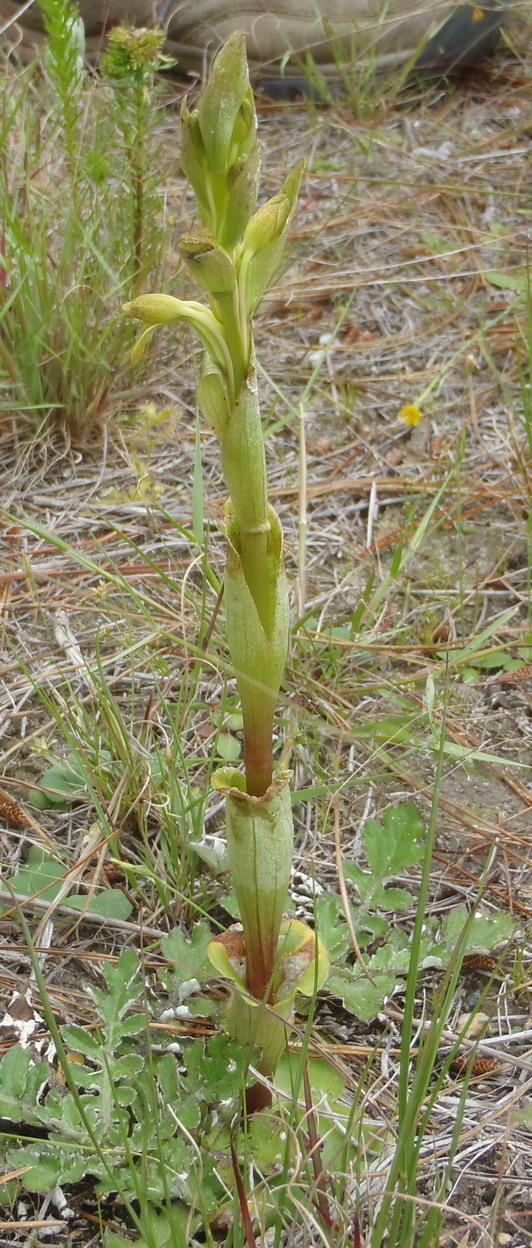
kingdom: Plantae
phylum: Tracheophyta
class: Liliopsida
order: Asparagales
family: Orchidaceae
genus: Satyrium
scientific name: Satyrium bicorne
